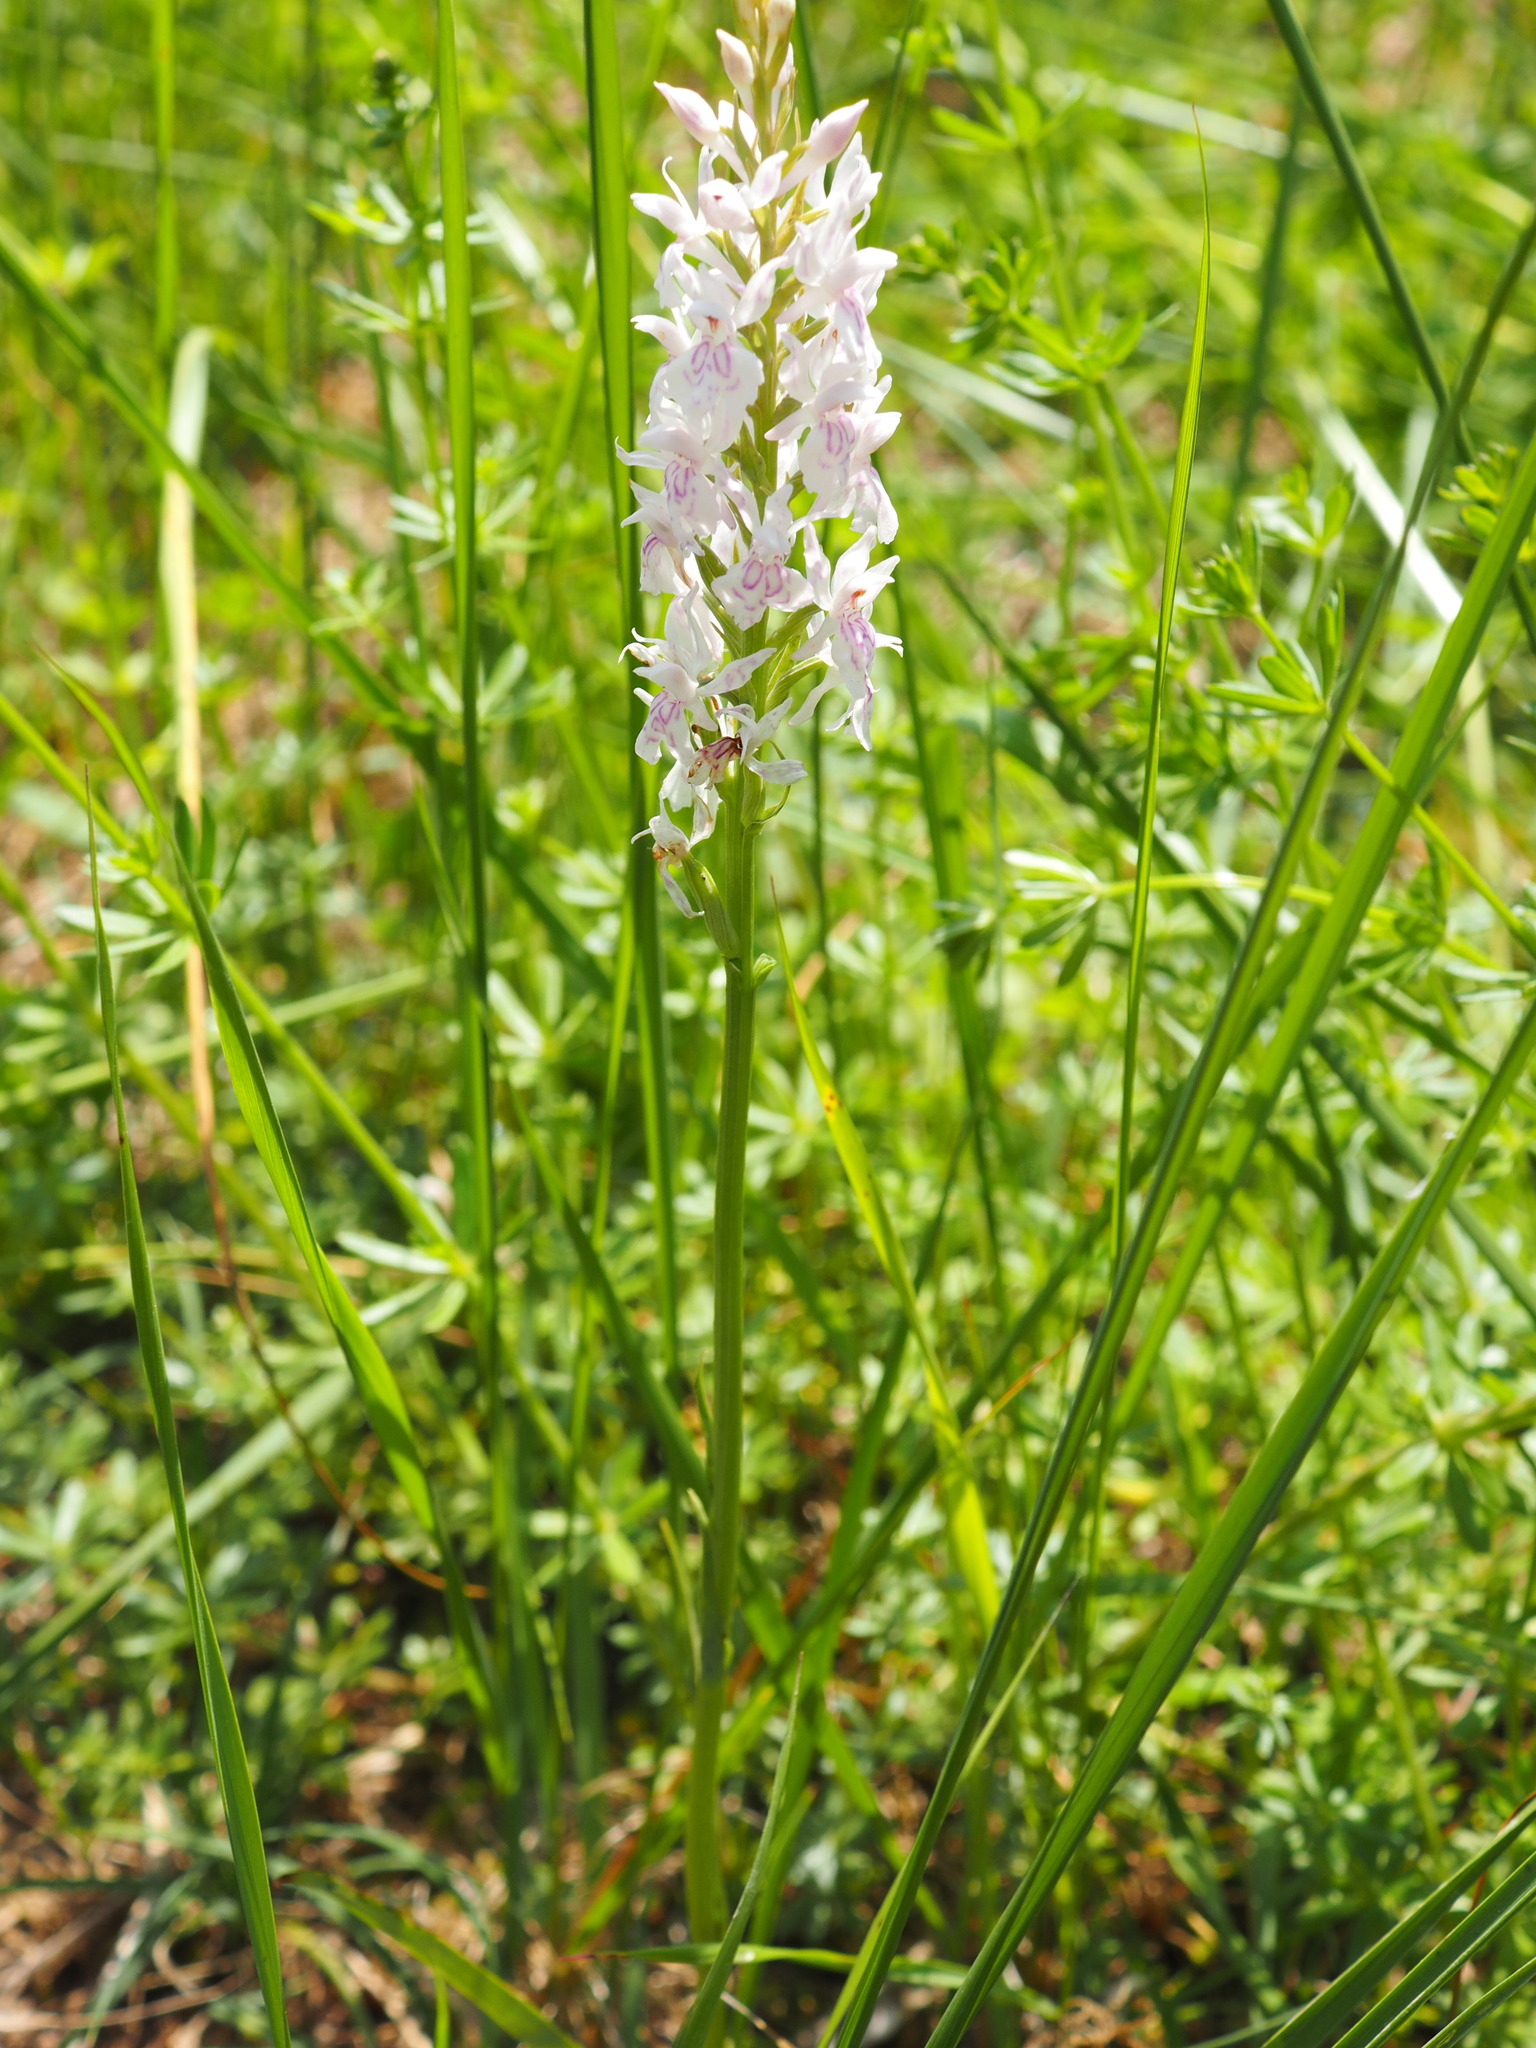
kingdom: Plantae
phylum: Tracheophyta
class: Liliopsida
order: Asparagales
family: Orchidaceae
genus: Dactylorhiza
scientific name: Dactylorhiza maculata
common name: Heath spotted-orchid
